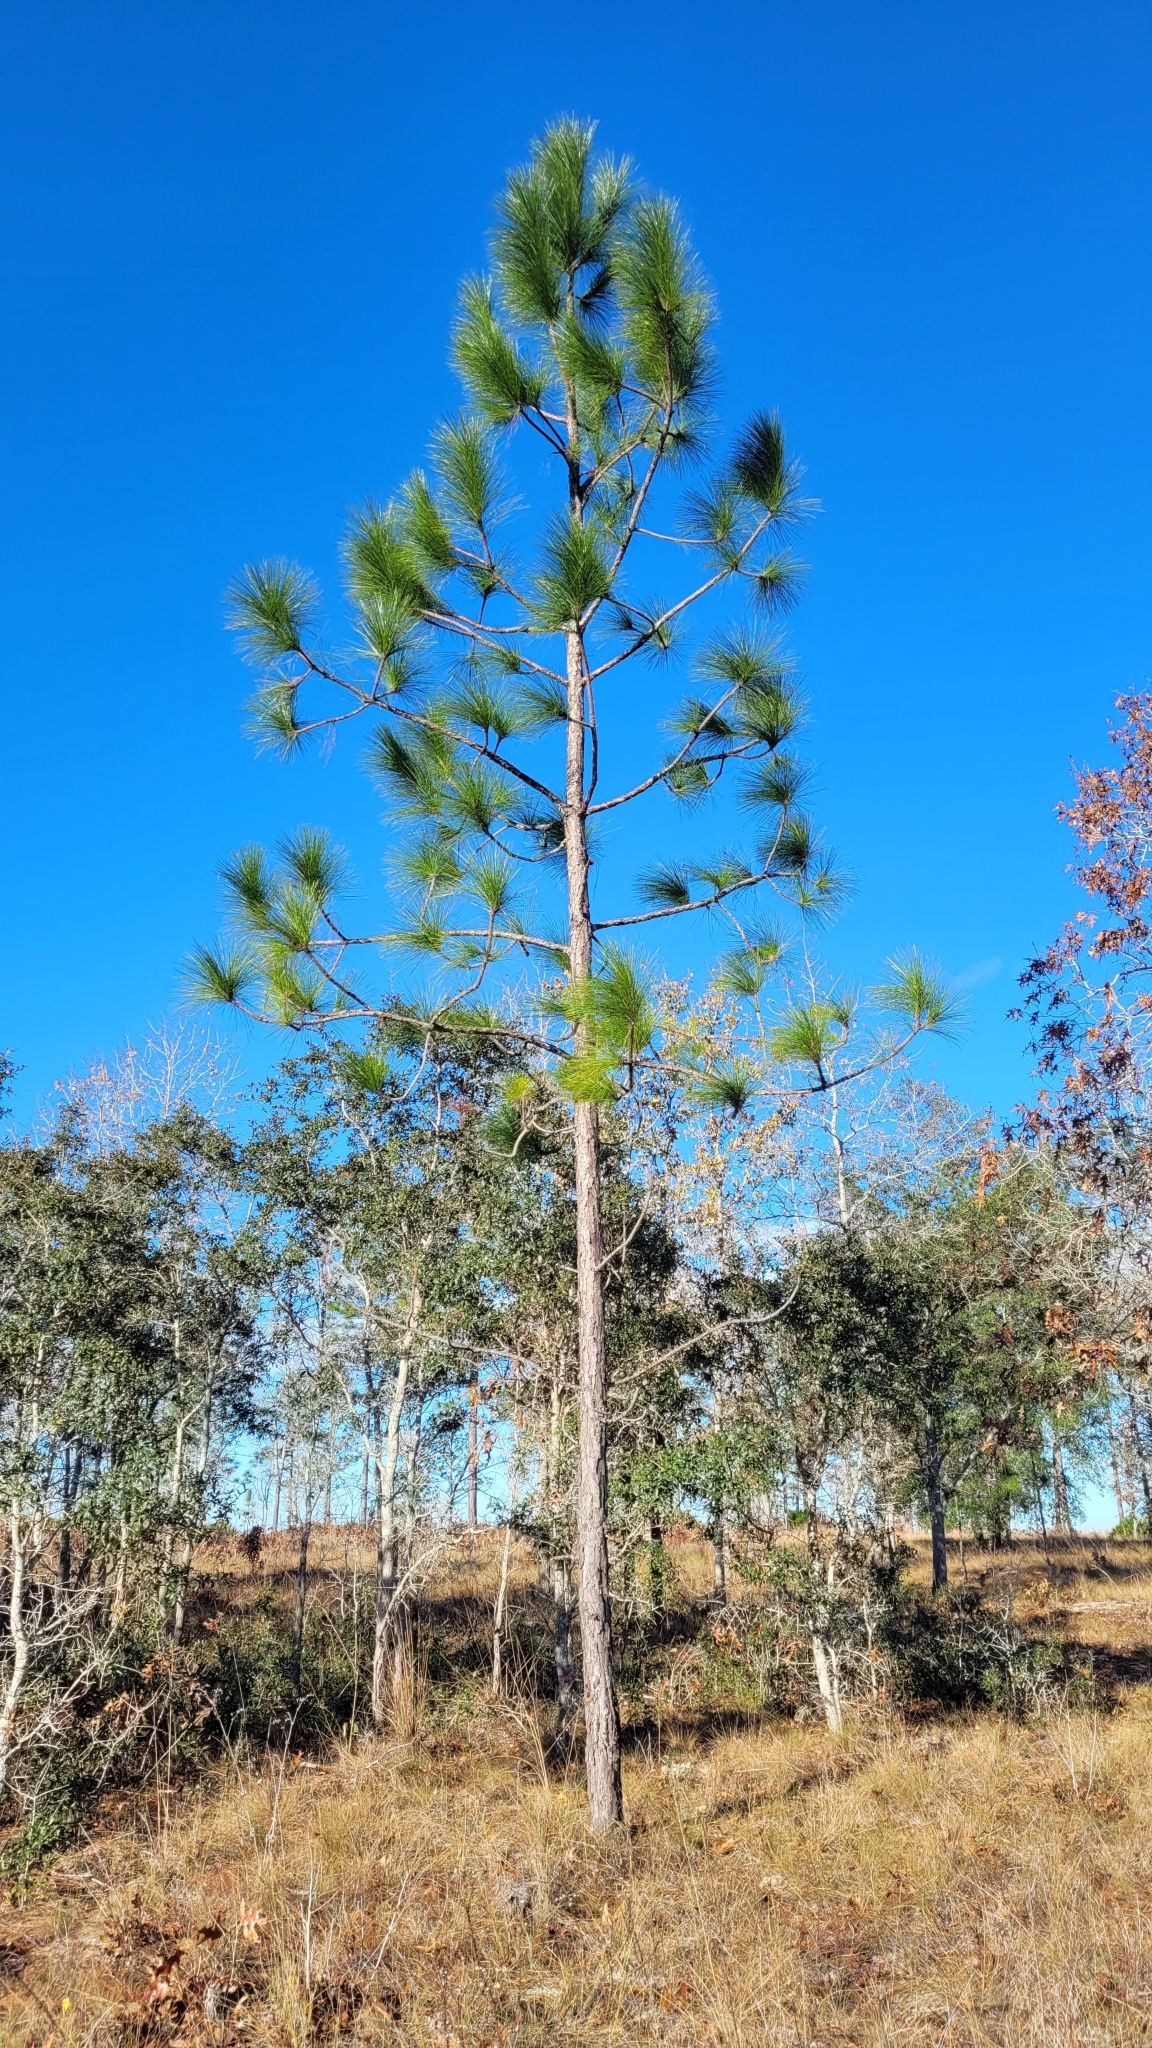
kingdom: Plantae
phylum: Tracheophyta
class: Pinopsida
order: Pinales
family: Pinaceae
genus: Pinus
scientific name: Pinus palustris
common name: Longleaf pine
